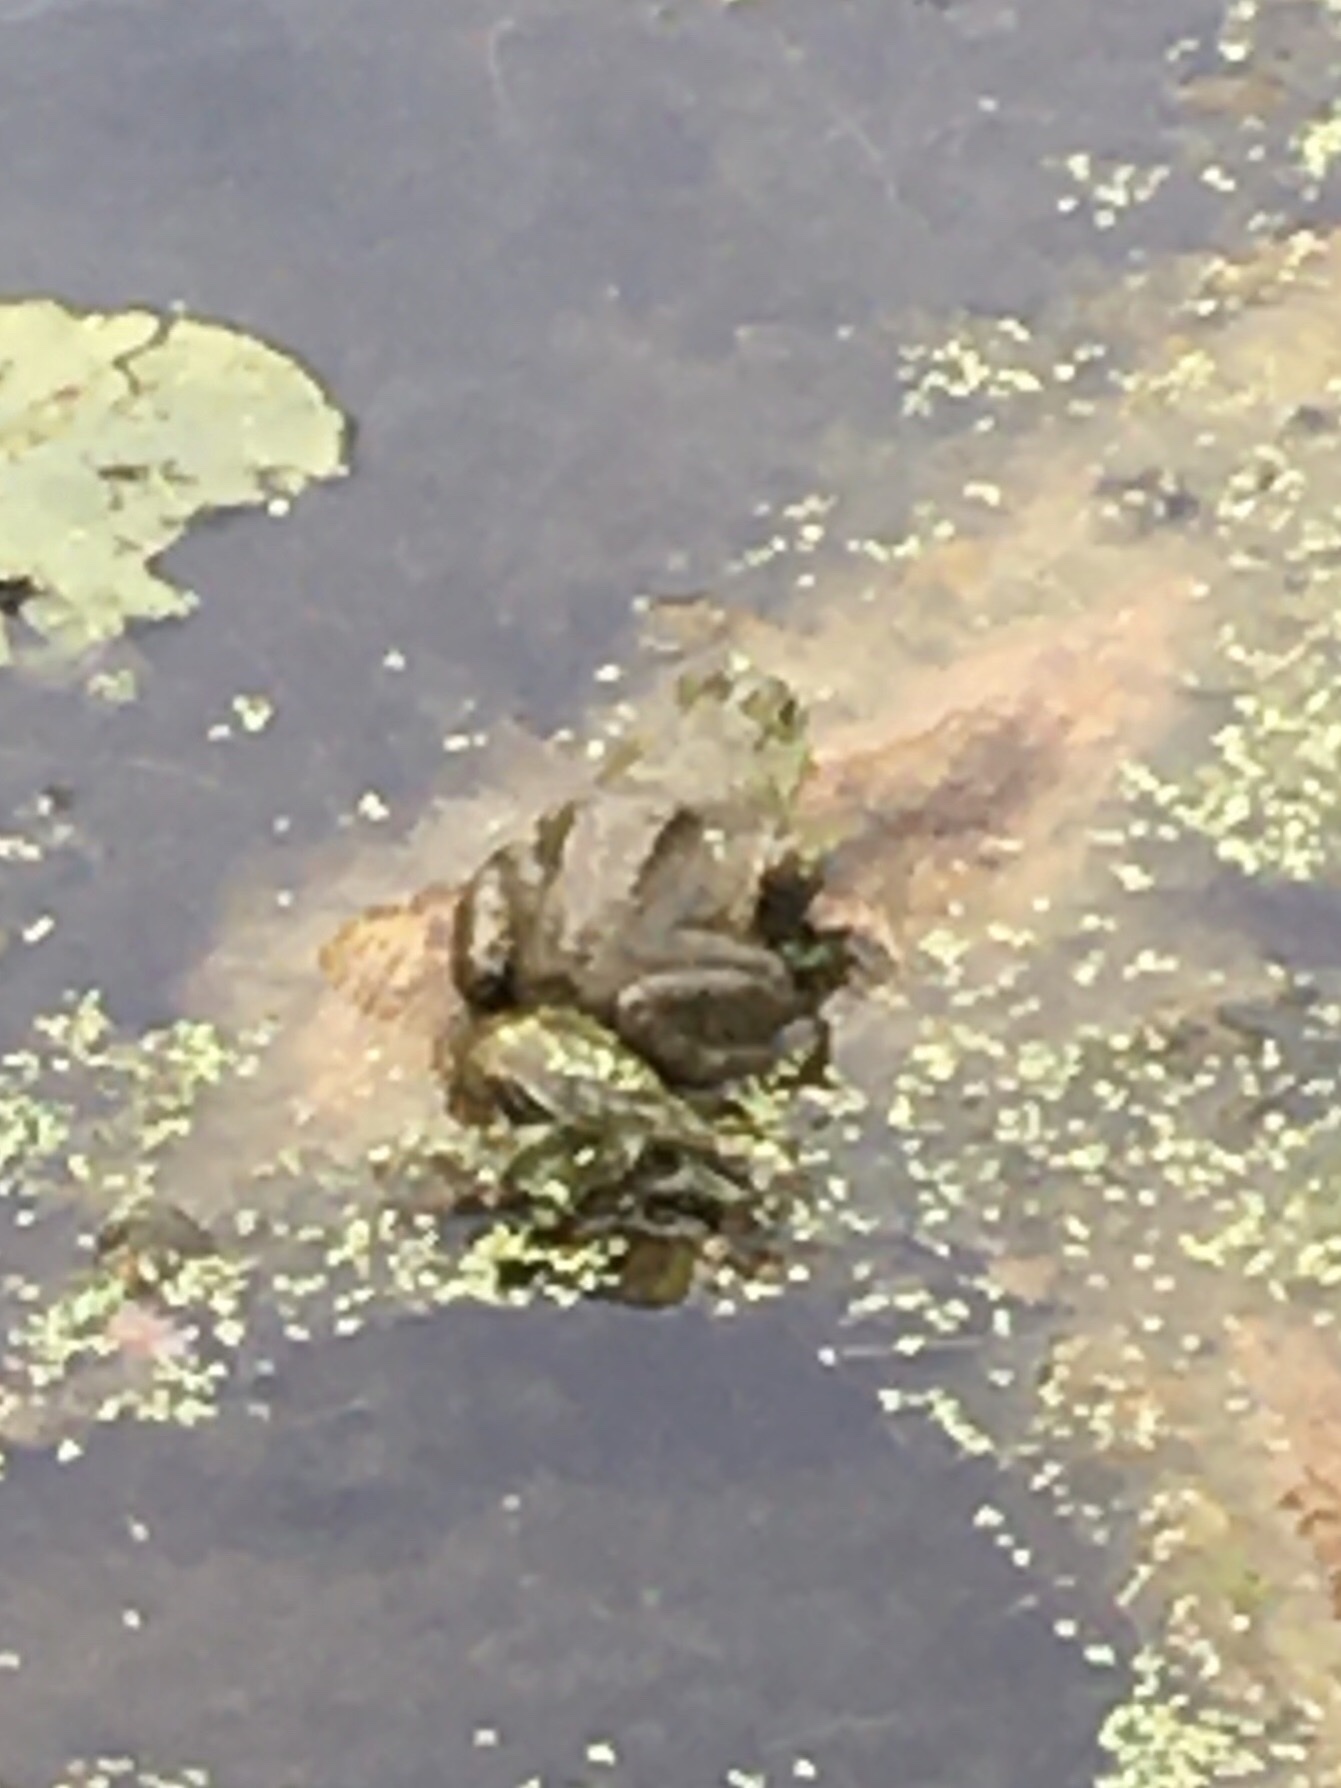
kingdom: Animalia
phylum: Chordata
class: Amphibia
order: Anura
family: Ranidae
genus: Lithobates
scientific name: Lithobates catesbeianus
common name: American bullfrog
